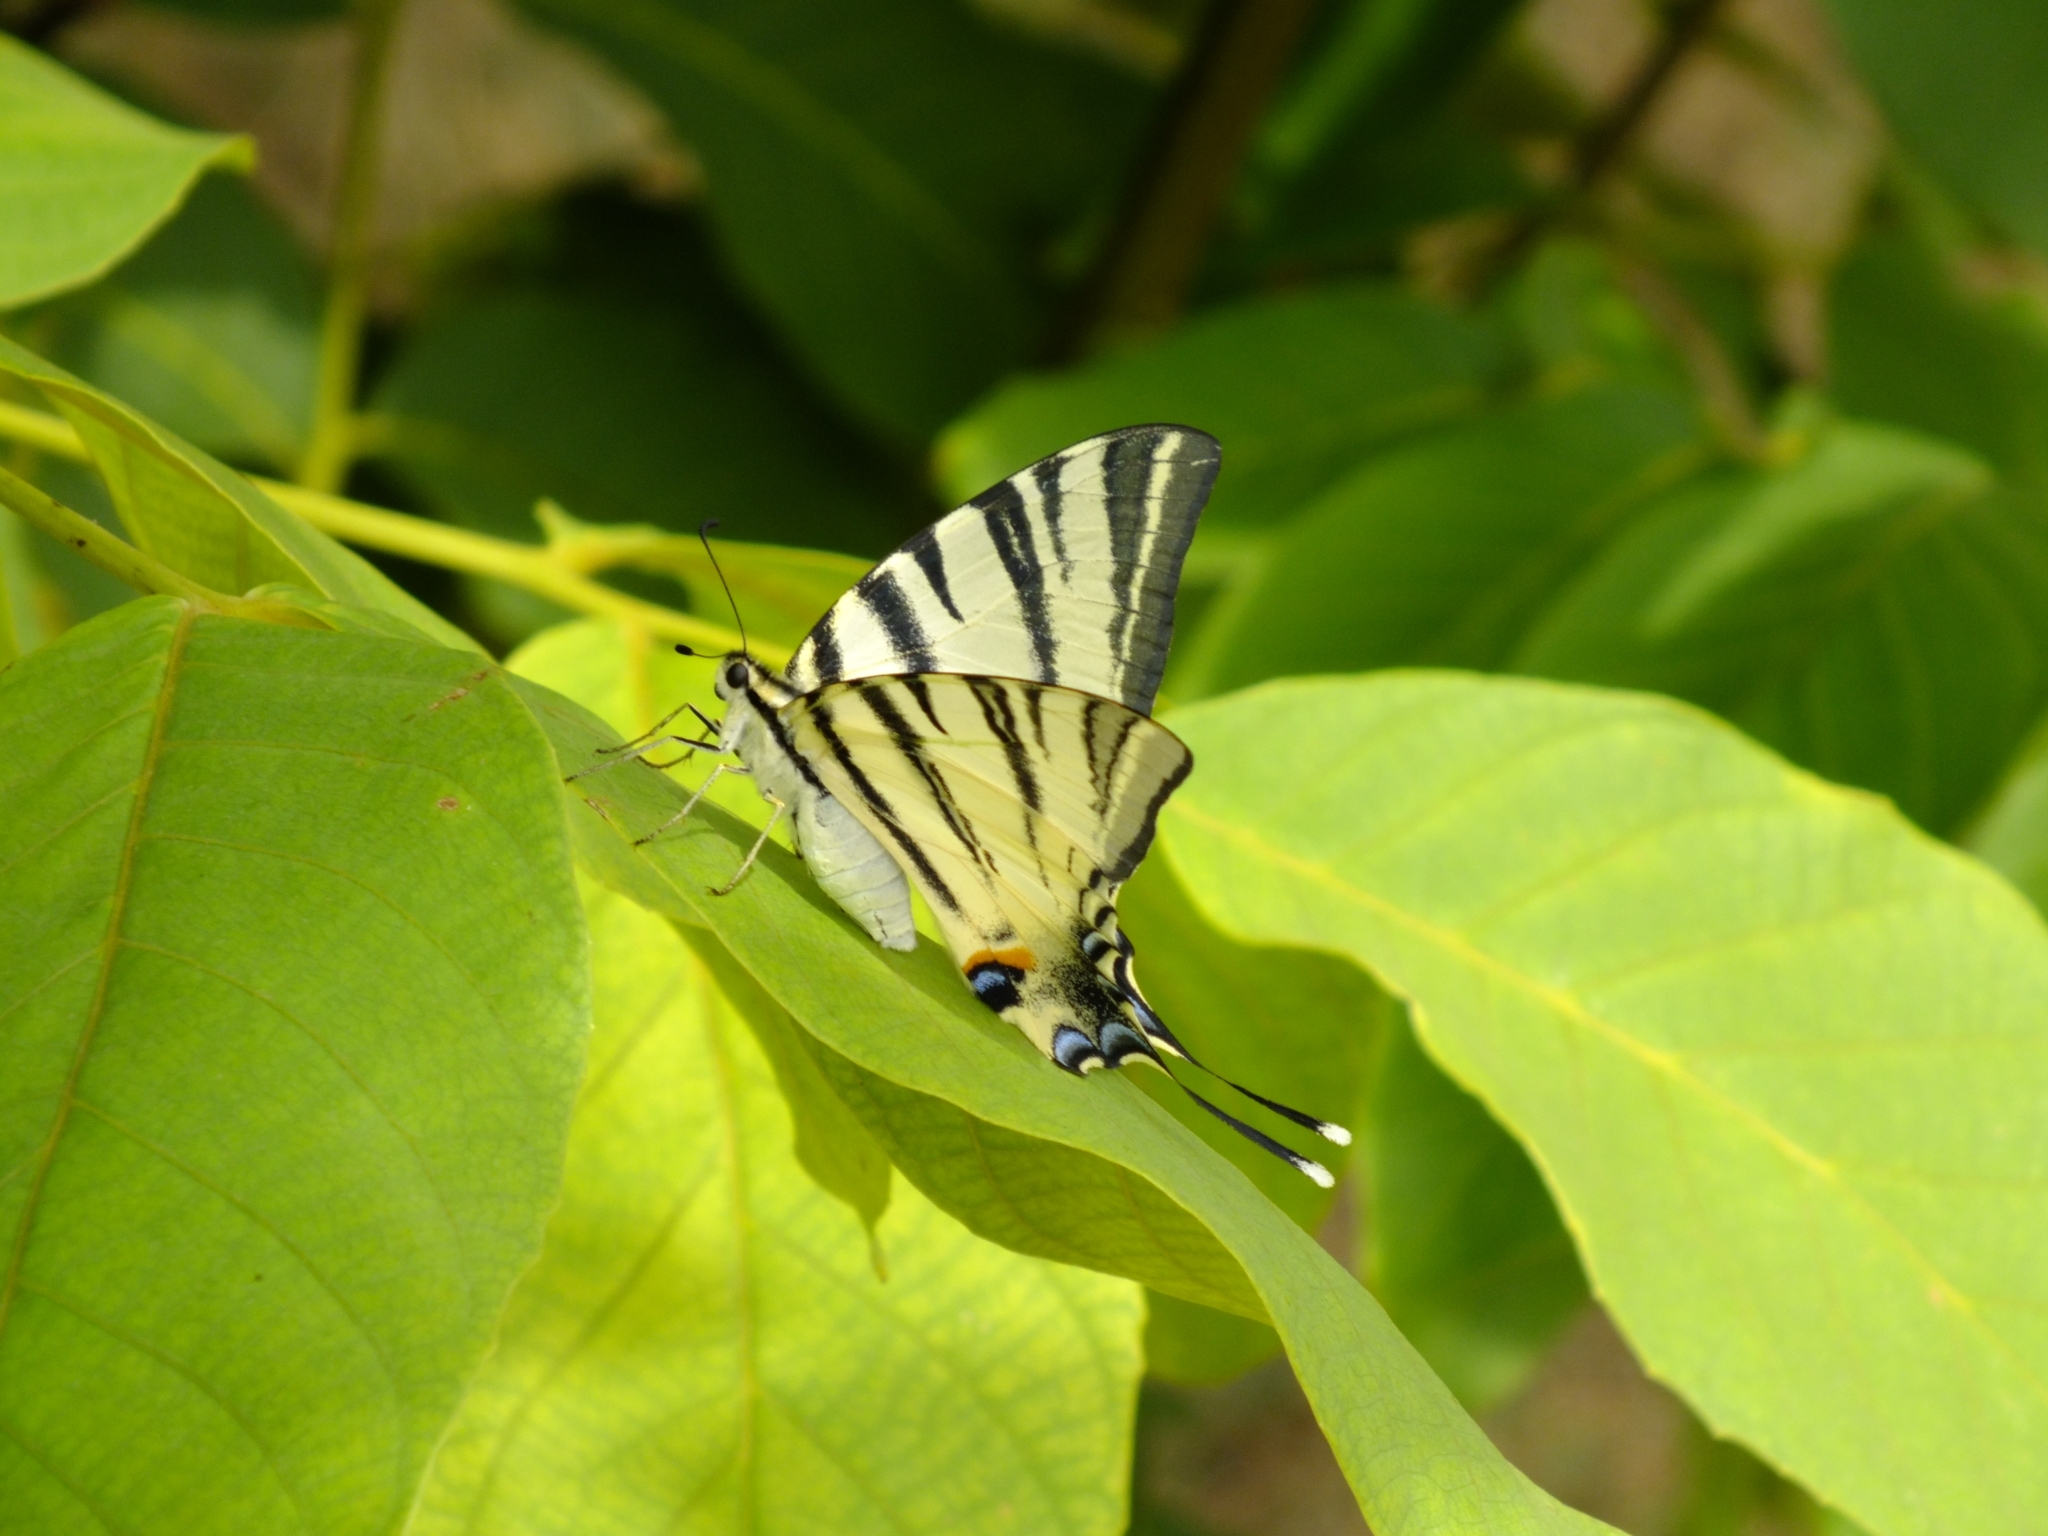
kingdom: Animalia
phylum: Arthropoda
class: Insecta
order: Lepidoptera
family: Papilionidae
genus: Iphiclides
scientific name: Iphiclides podalirius
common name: Scarce swallowtail
